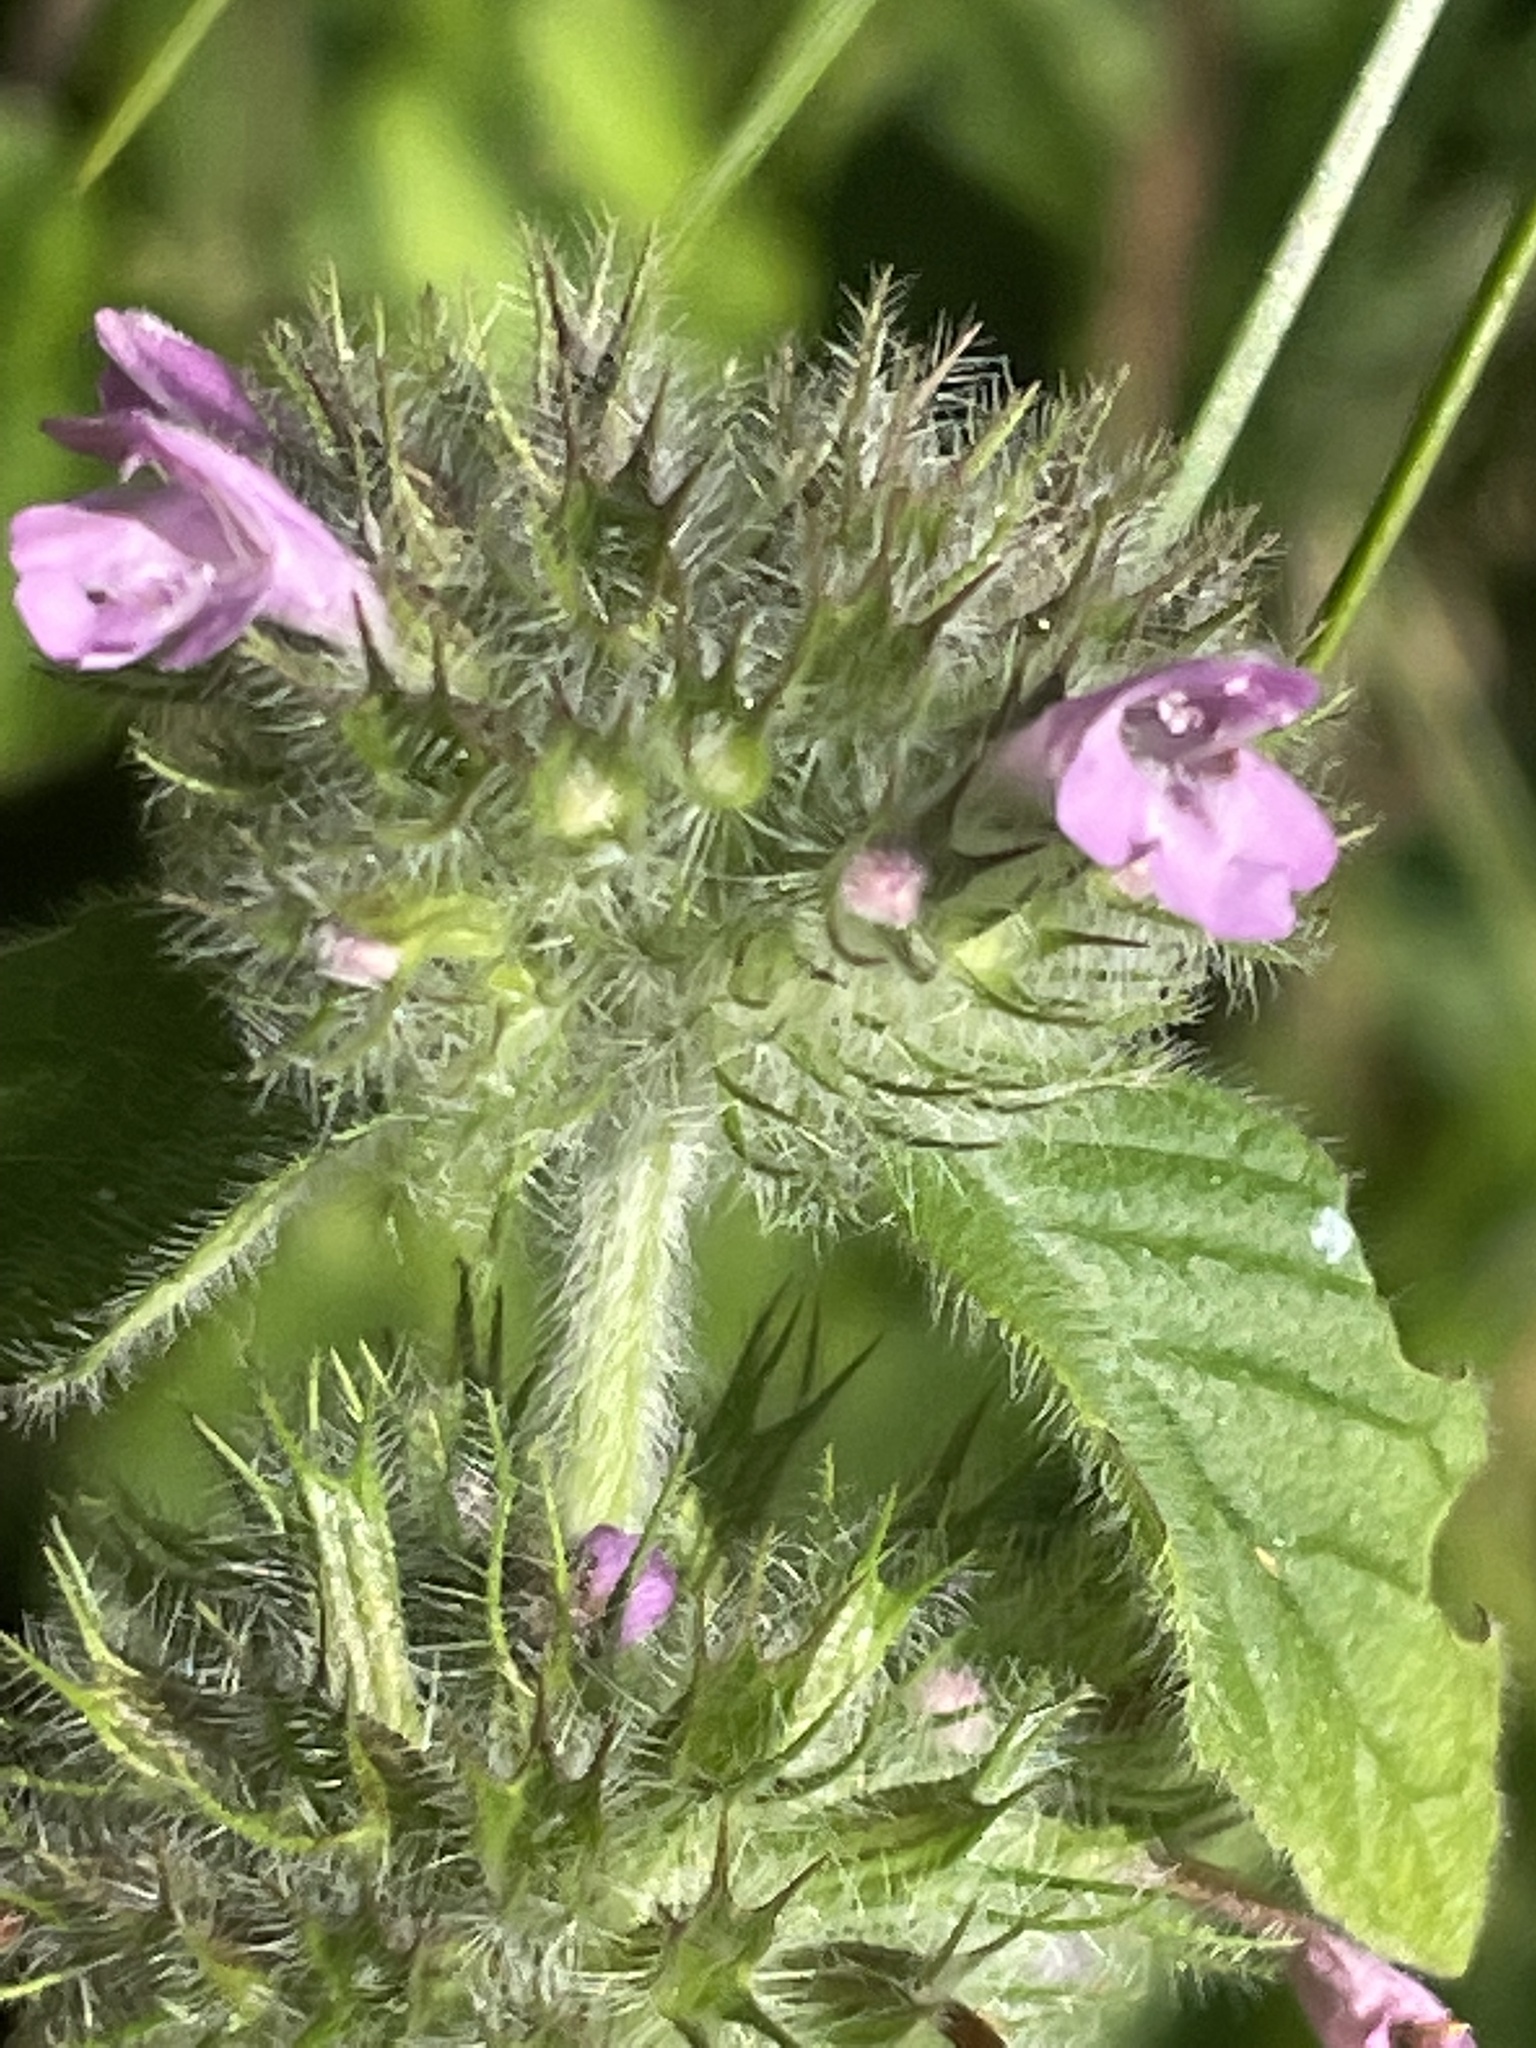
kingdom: Plantae
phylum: Tracheophyta
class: Magnoliopsida
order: Lamiales
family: Lamiaceae
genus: Clinopodium
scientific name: Clinopodium vulgare
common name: Wild basil
